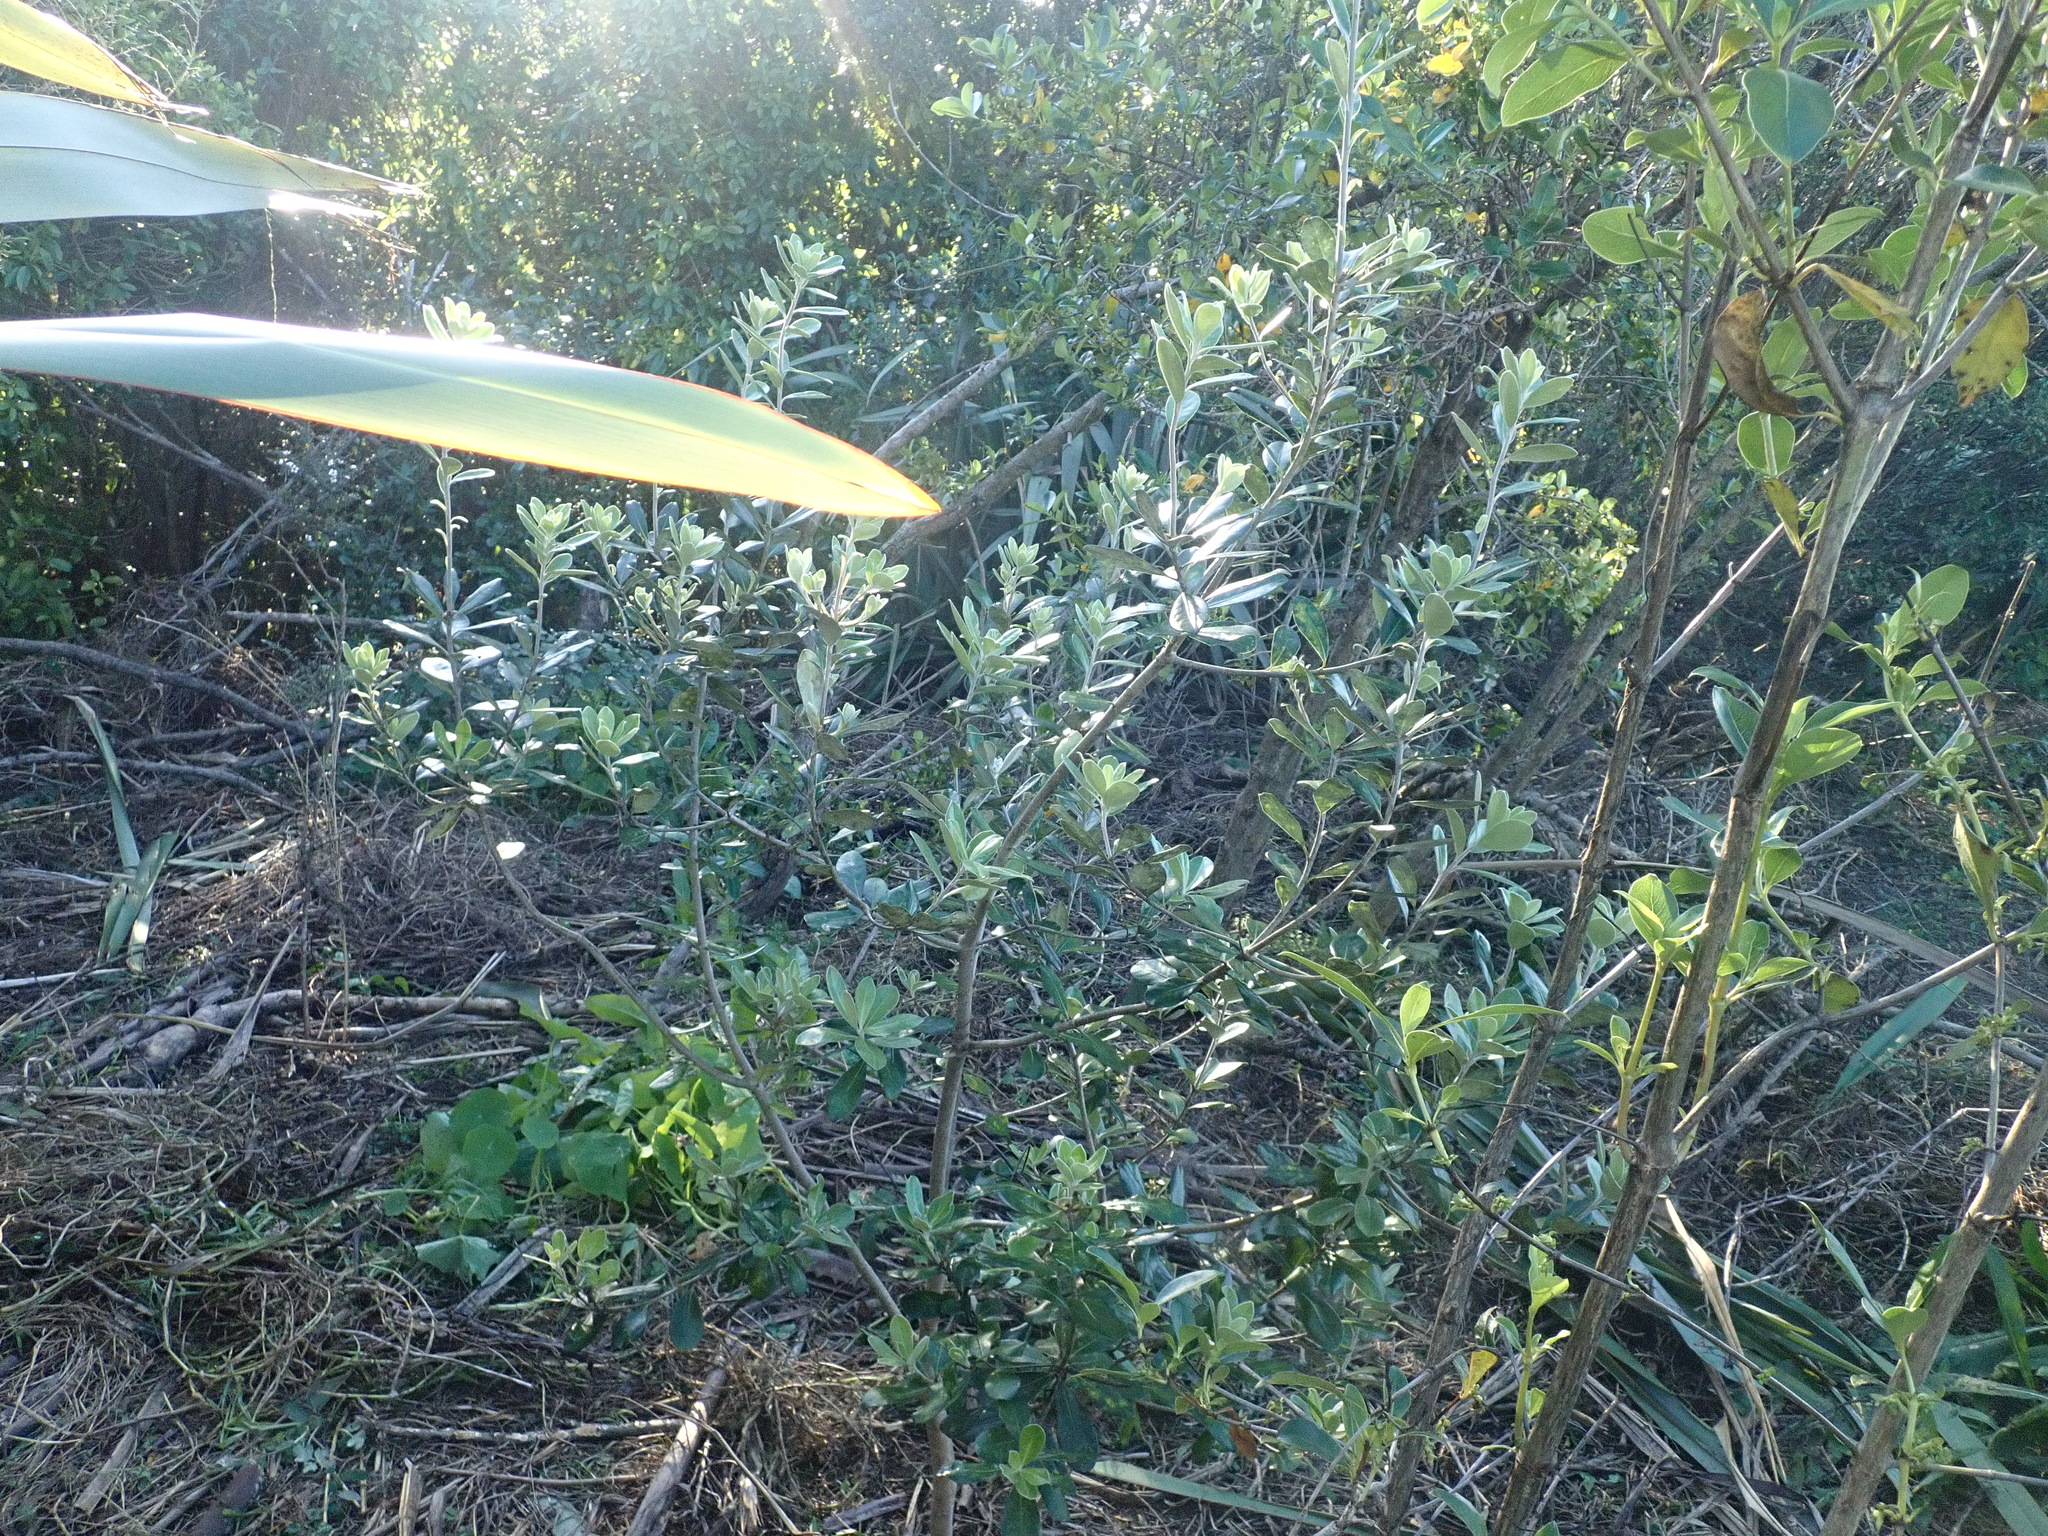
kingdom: Plantae
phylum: Tracheophyta
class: Magnoliopsida
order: Apiales
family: Pittosporaceae
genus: Pittosporum
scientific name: Pittosporum crassifolium
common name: Karo
